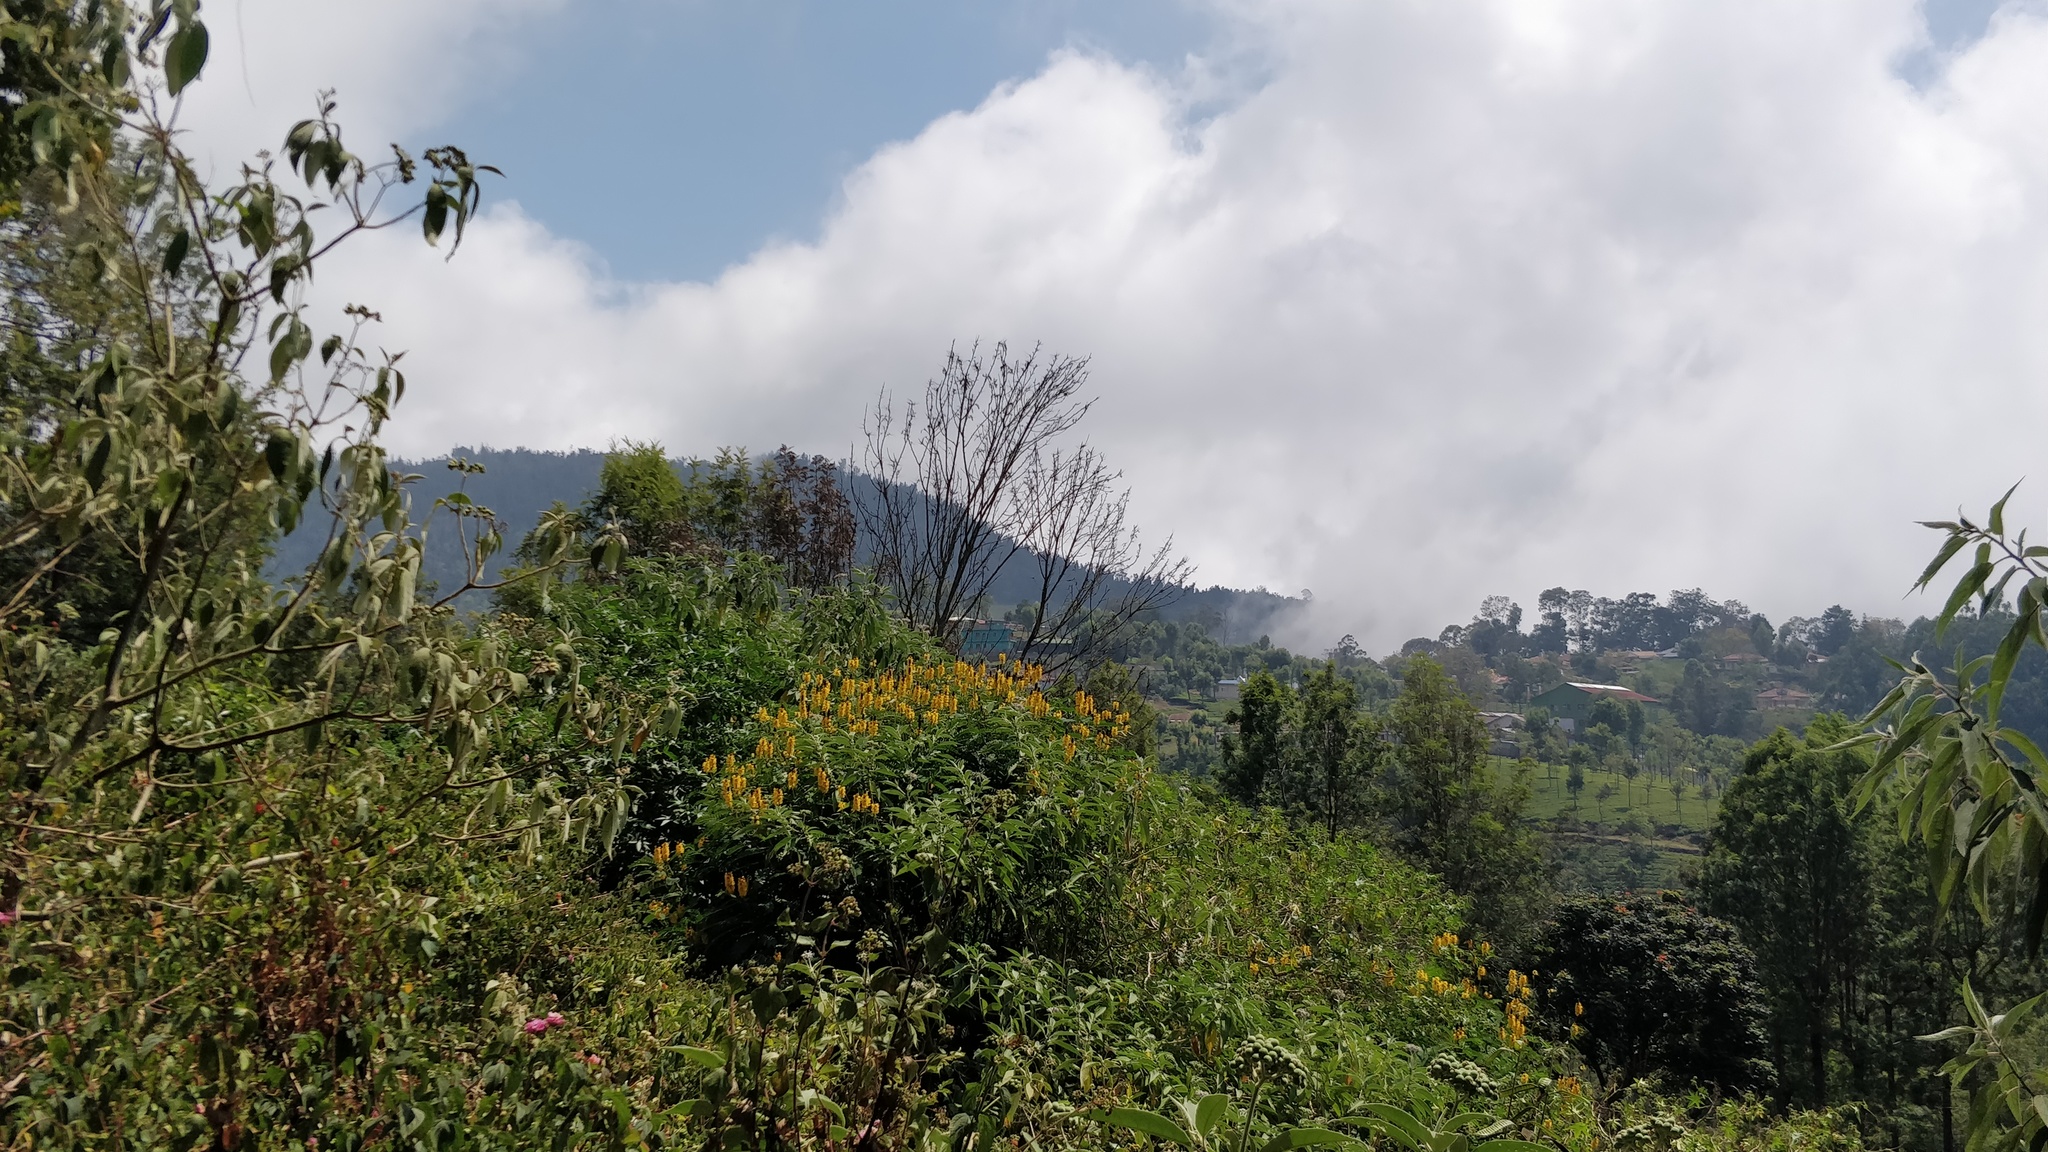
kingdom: Plantae
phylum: Tracheophyta
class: Magnoliopsida
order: Fabales
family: Fabaceae
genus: Senna
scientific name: Senna didymobotrya
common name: African senna
